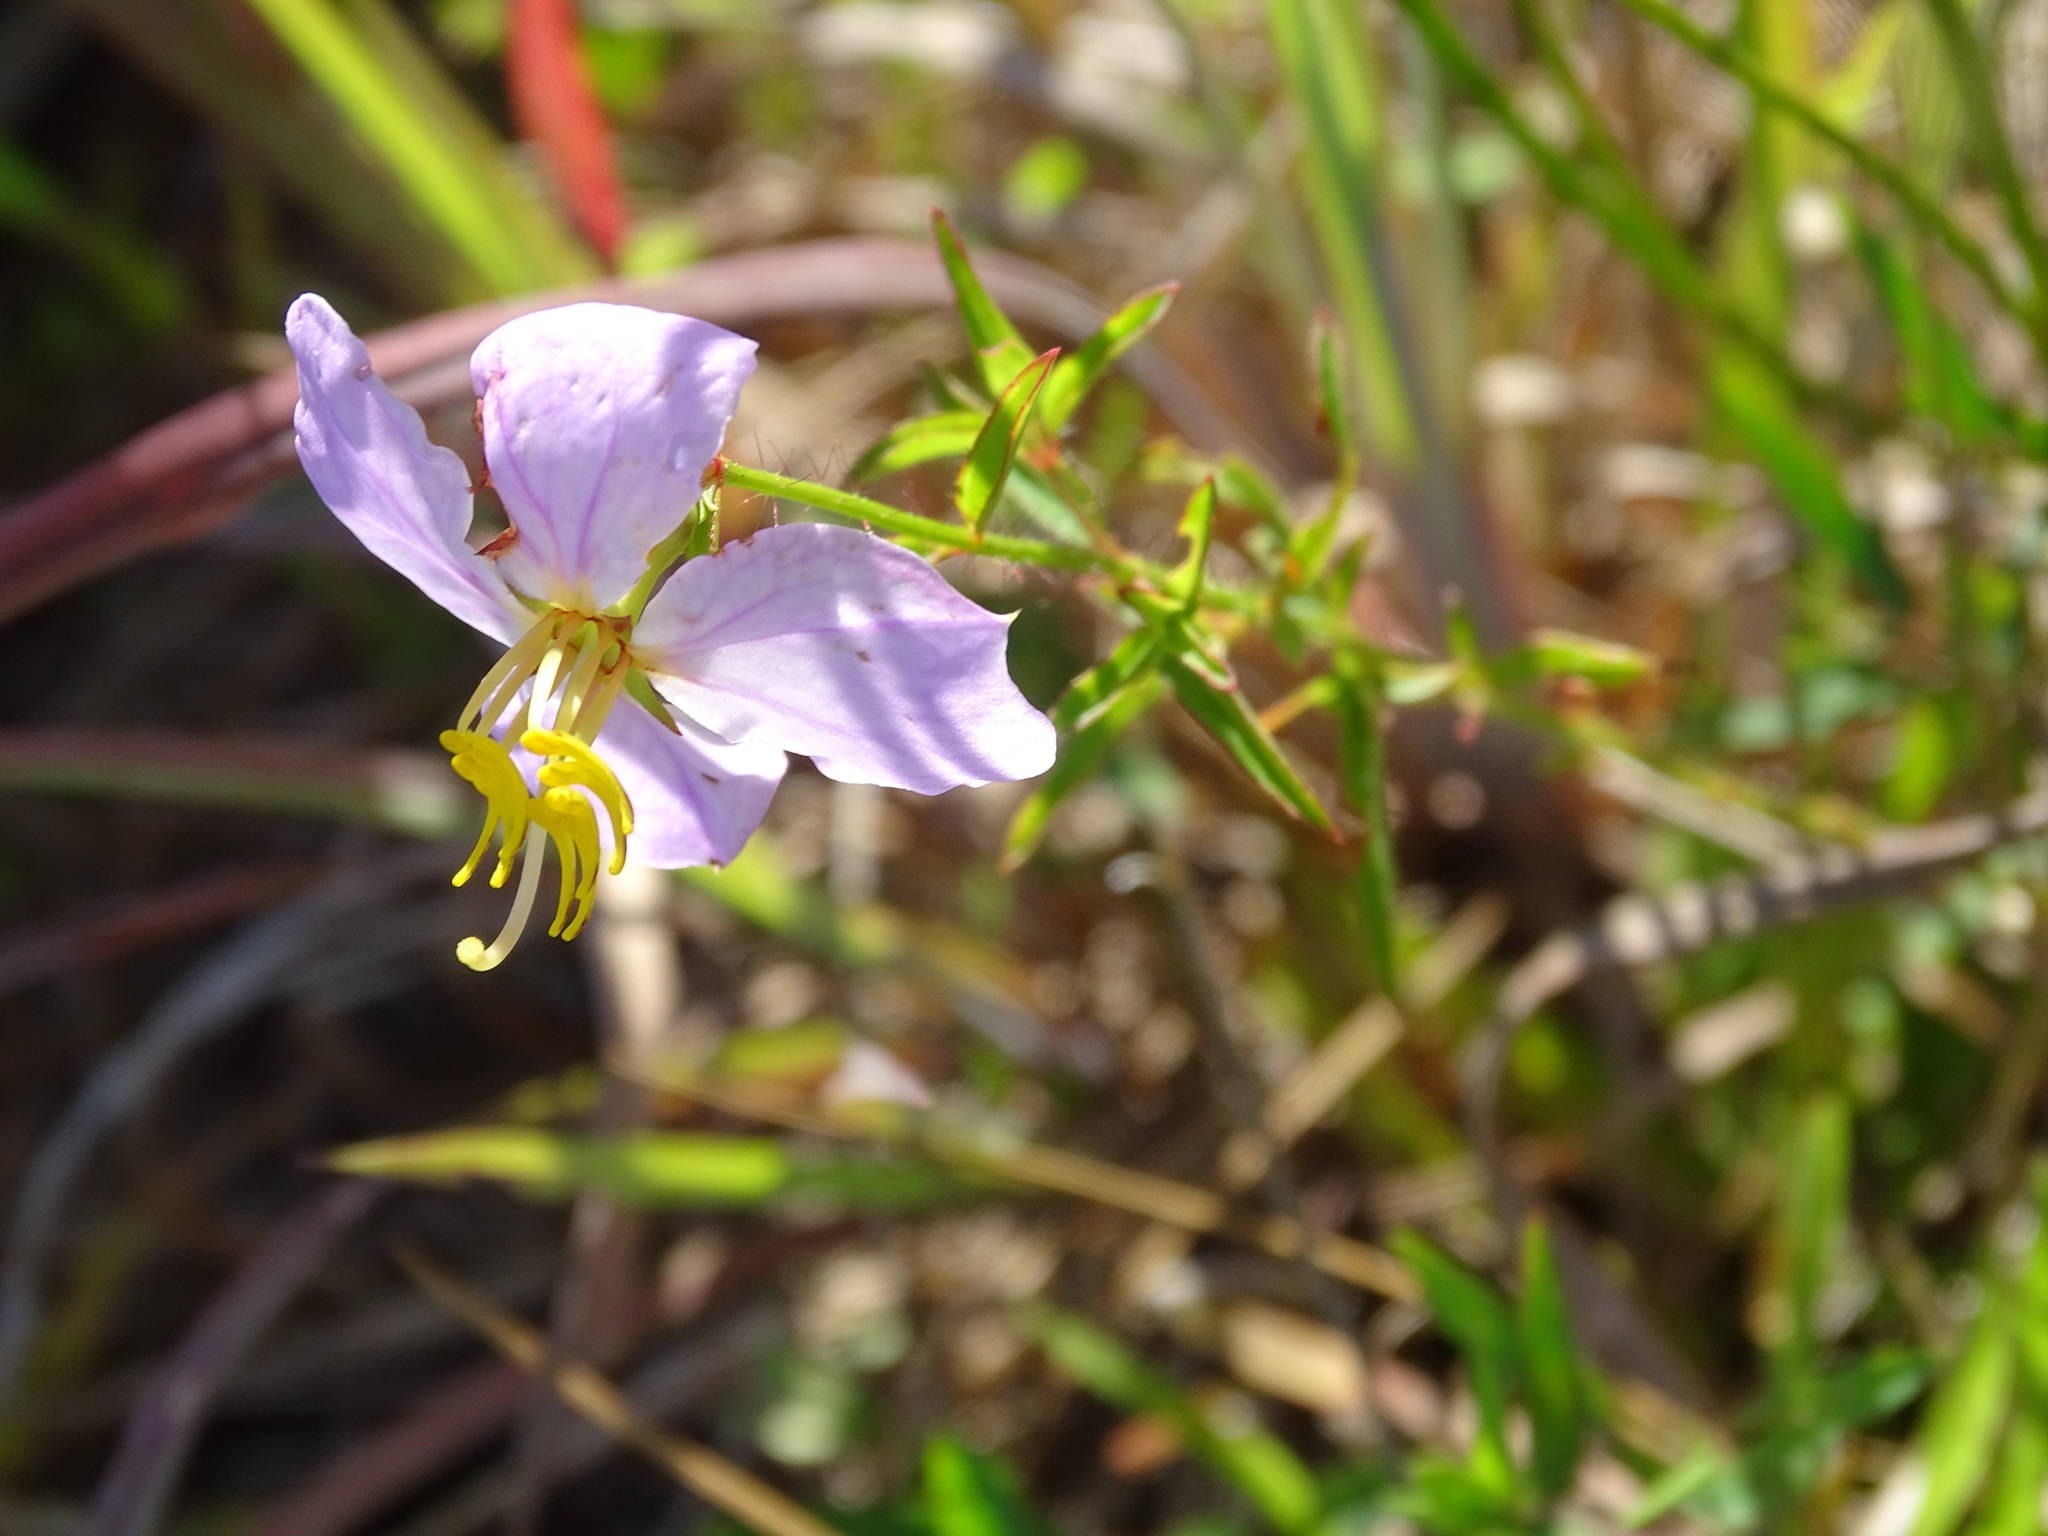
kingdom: Plantae
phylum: Tracheophyta
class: Magnoliopsida
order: Myrtales
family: Melastomataceae
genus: Rhexia
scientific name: Rhexia mariana
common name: Dull meadow-pitcher
